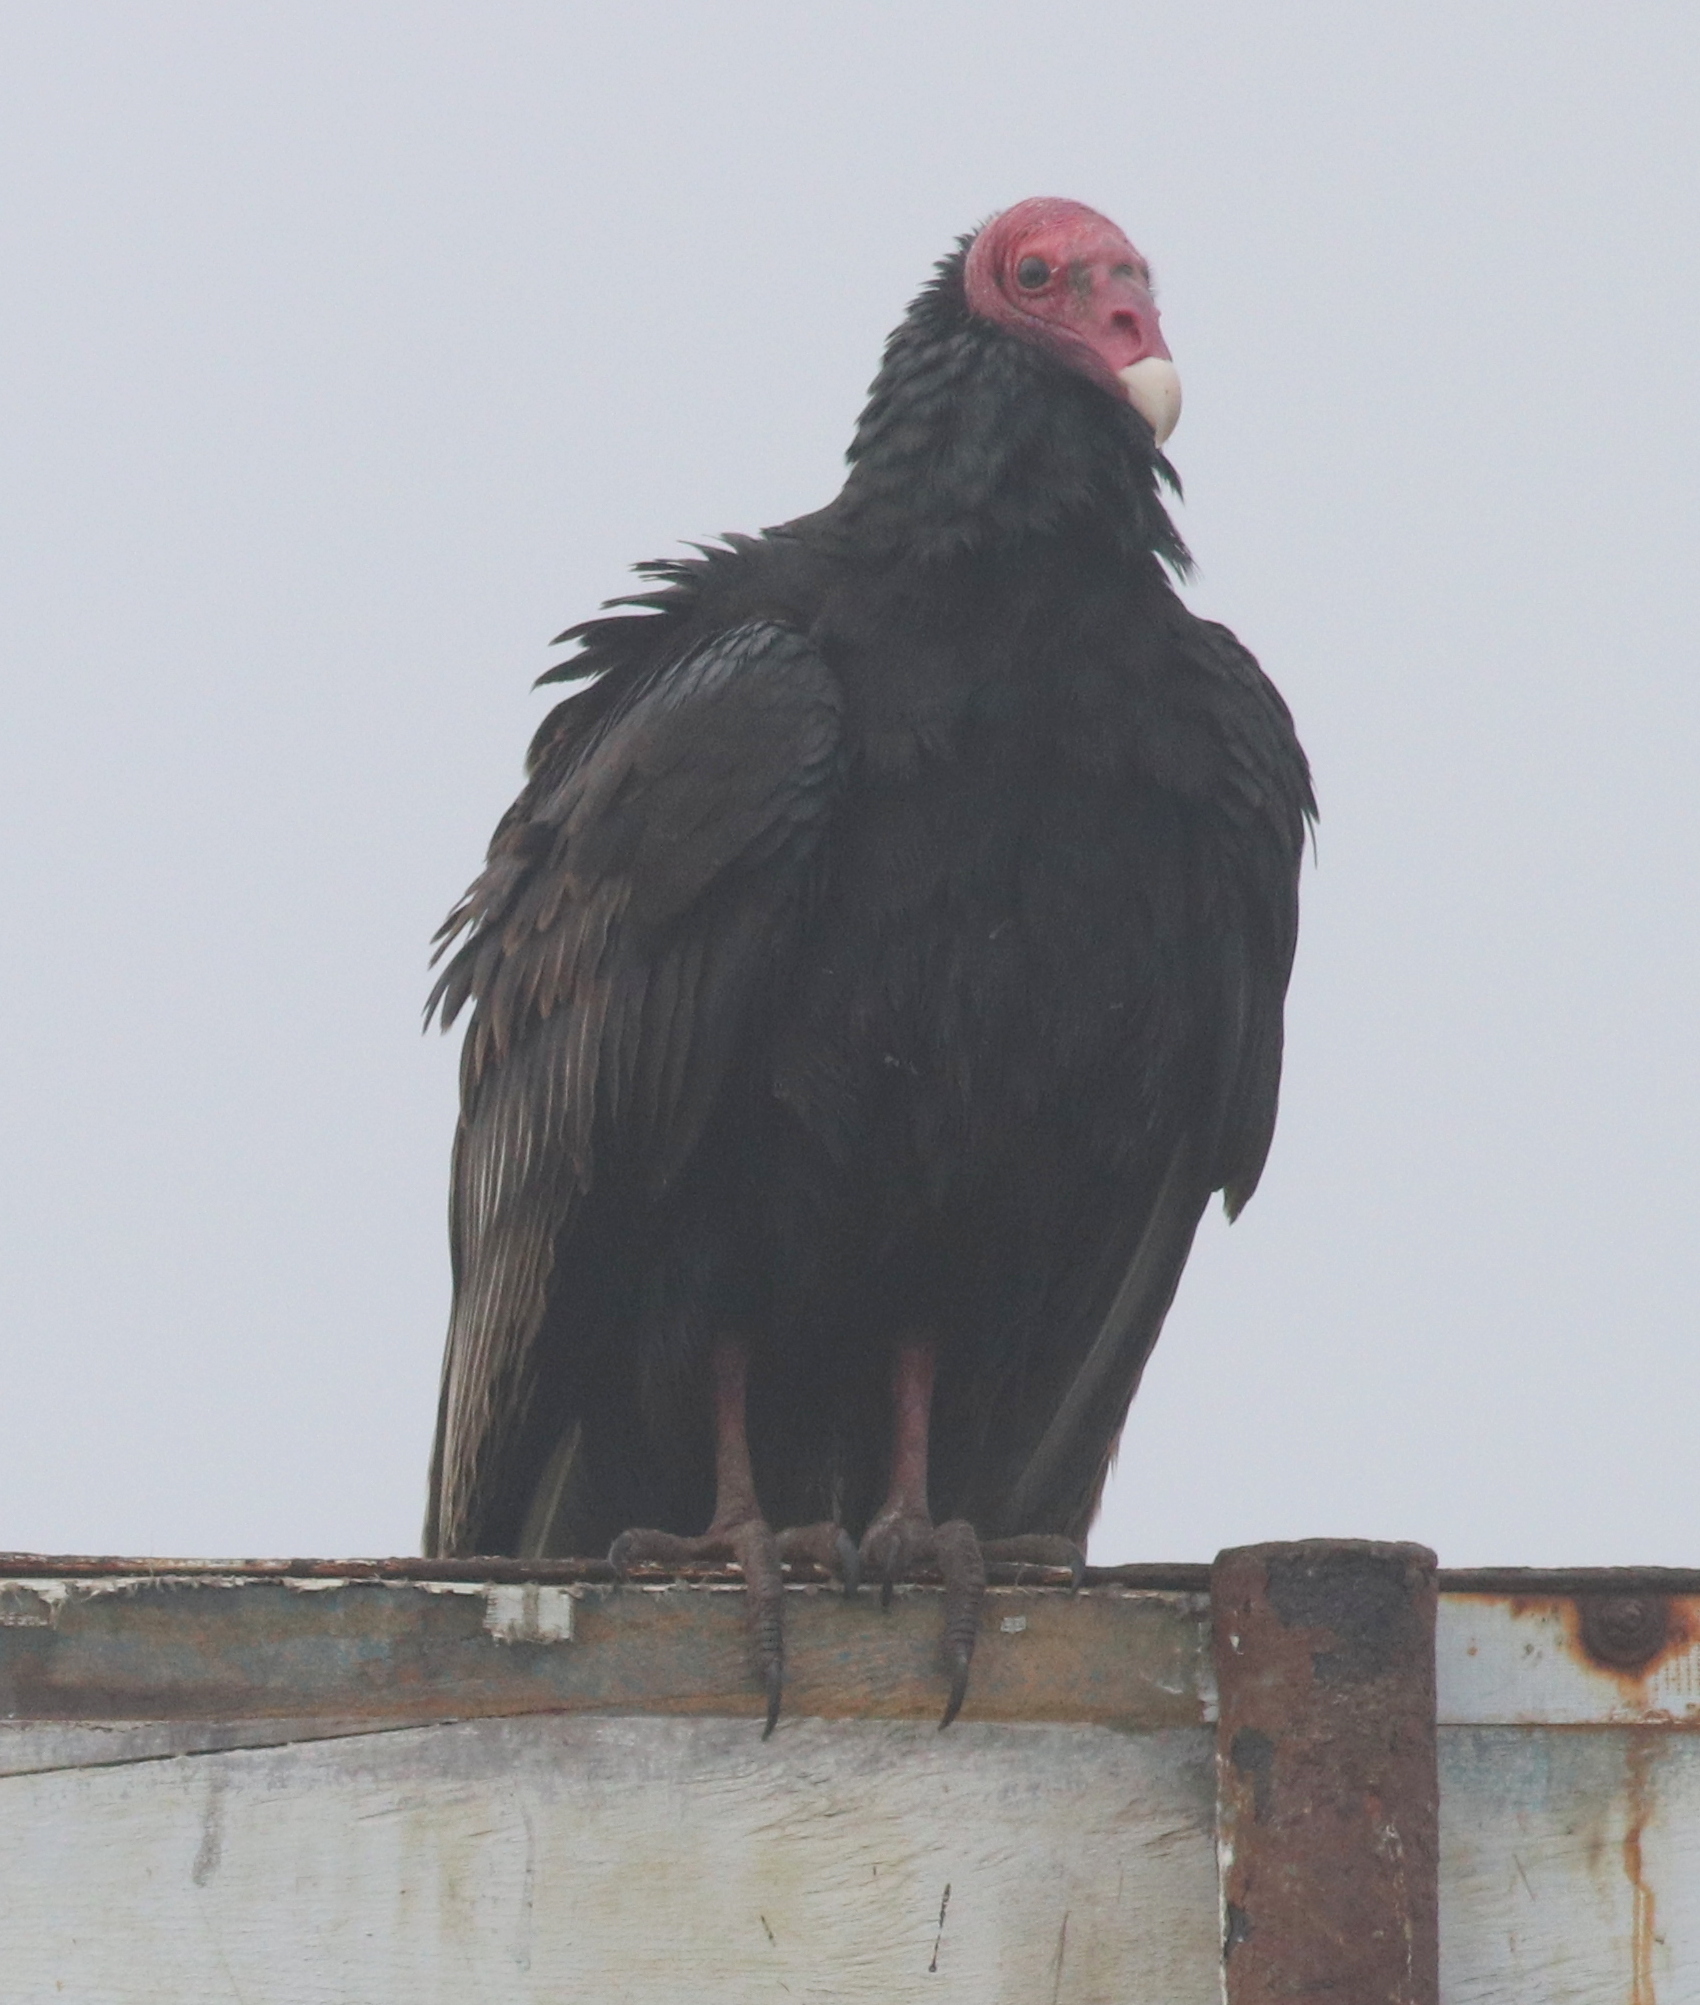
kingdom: Animalia
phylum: Chordata
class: Aves
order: Accipitriformes
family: Cathartidae
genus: Cathartes
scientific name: Cathartes aura
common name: Turkey vulture
